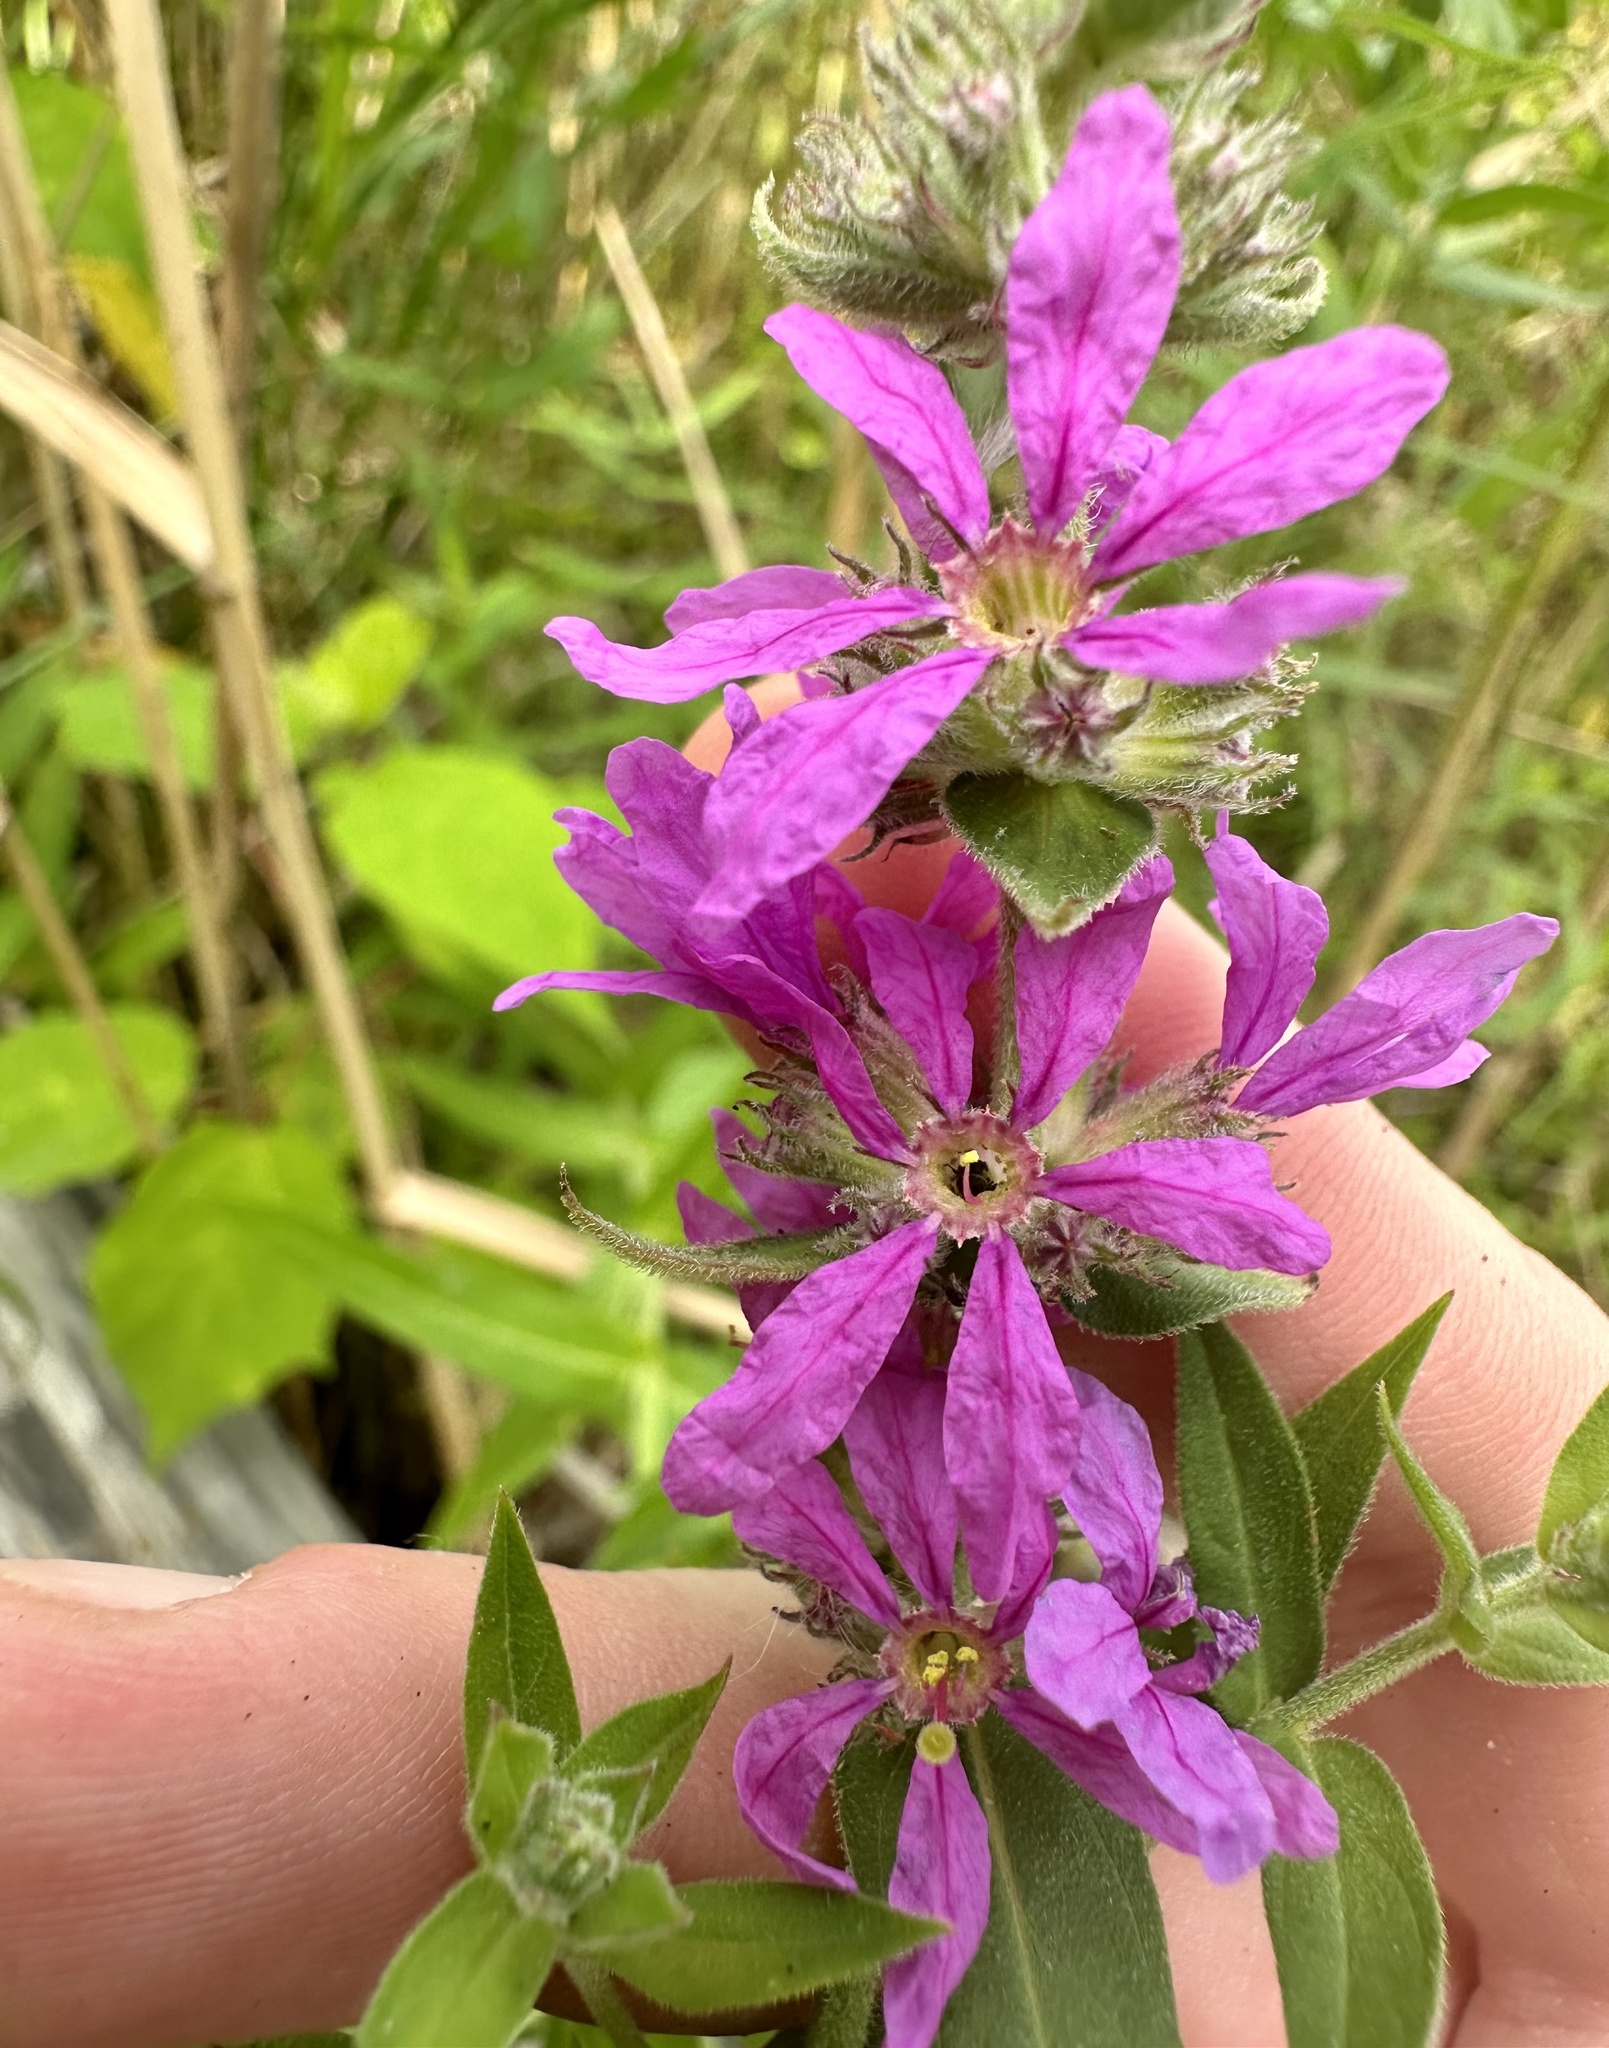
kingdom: Plantae
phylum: Tracheophyta
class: Magnoliopsida
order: Myrtales
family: Lythraceae
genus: Lythrum
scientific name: Lythrum salicaria
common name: Purple loosestrife
